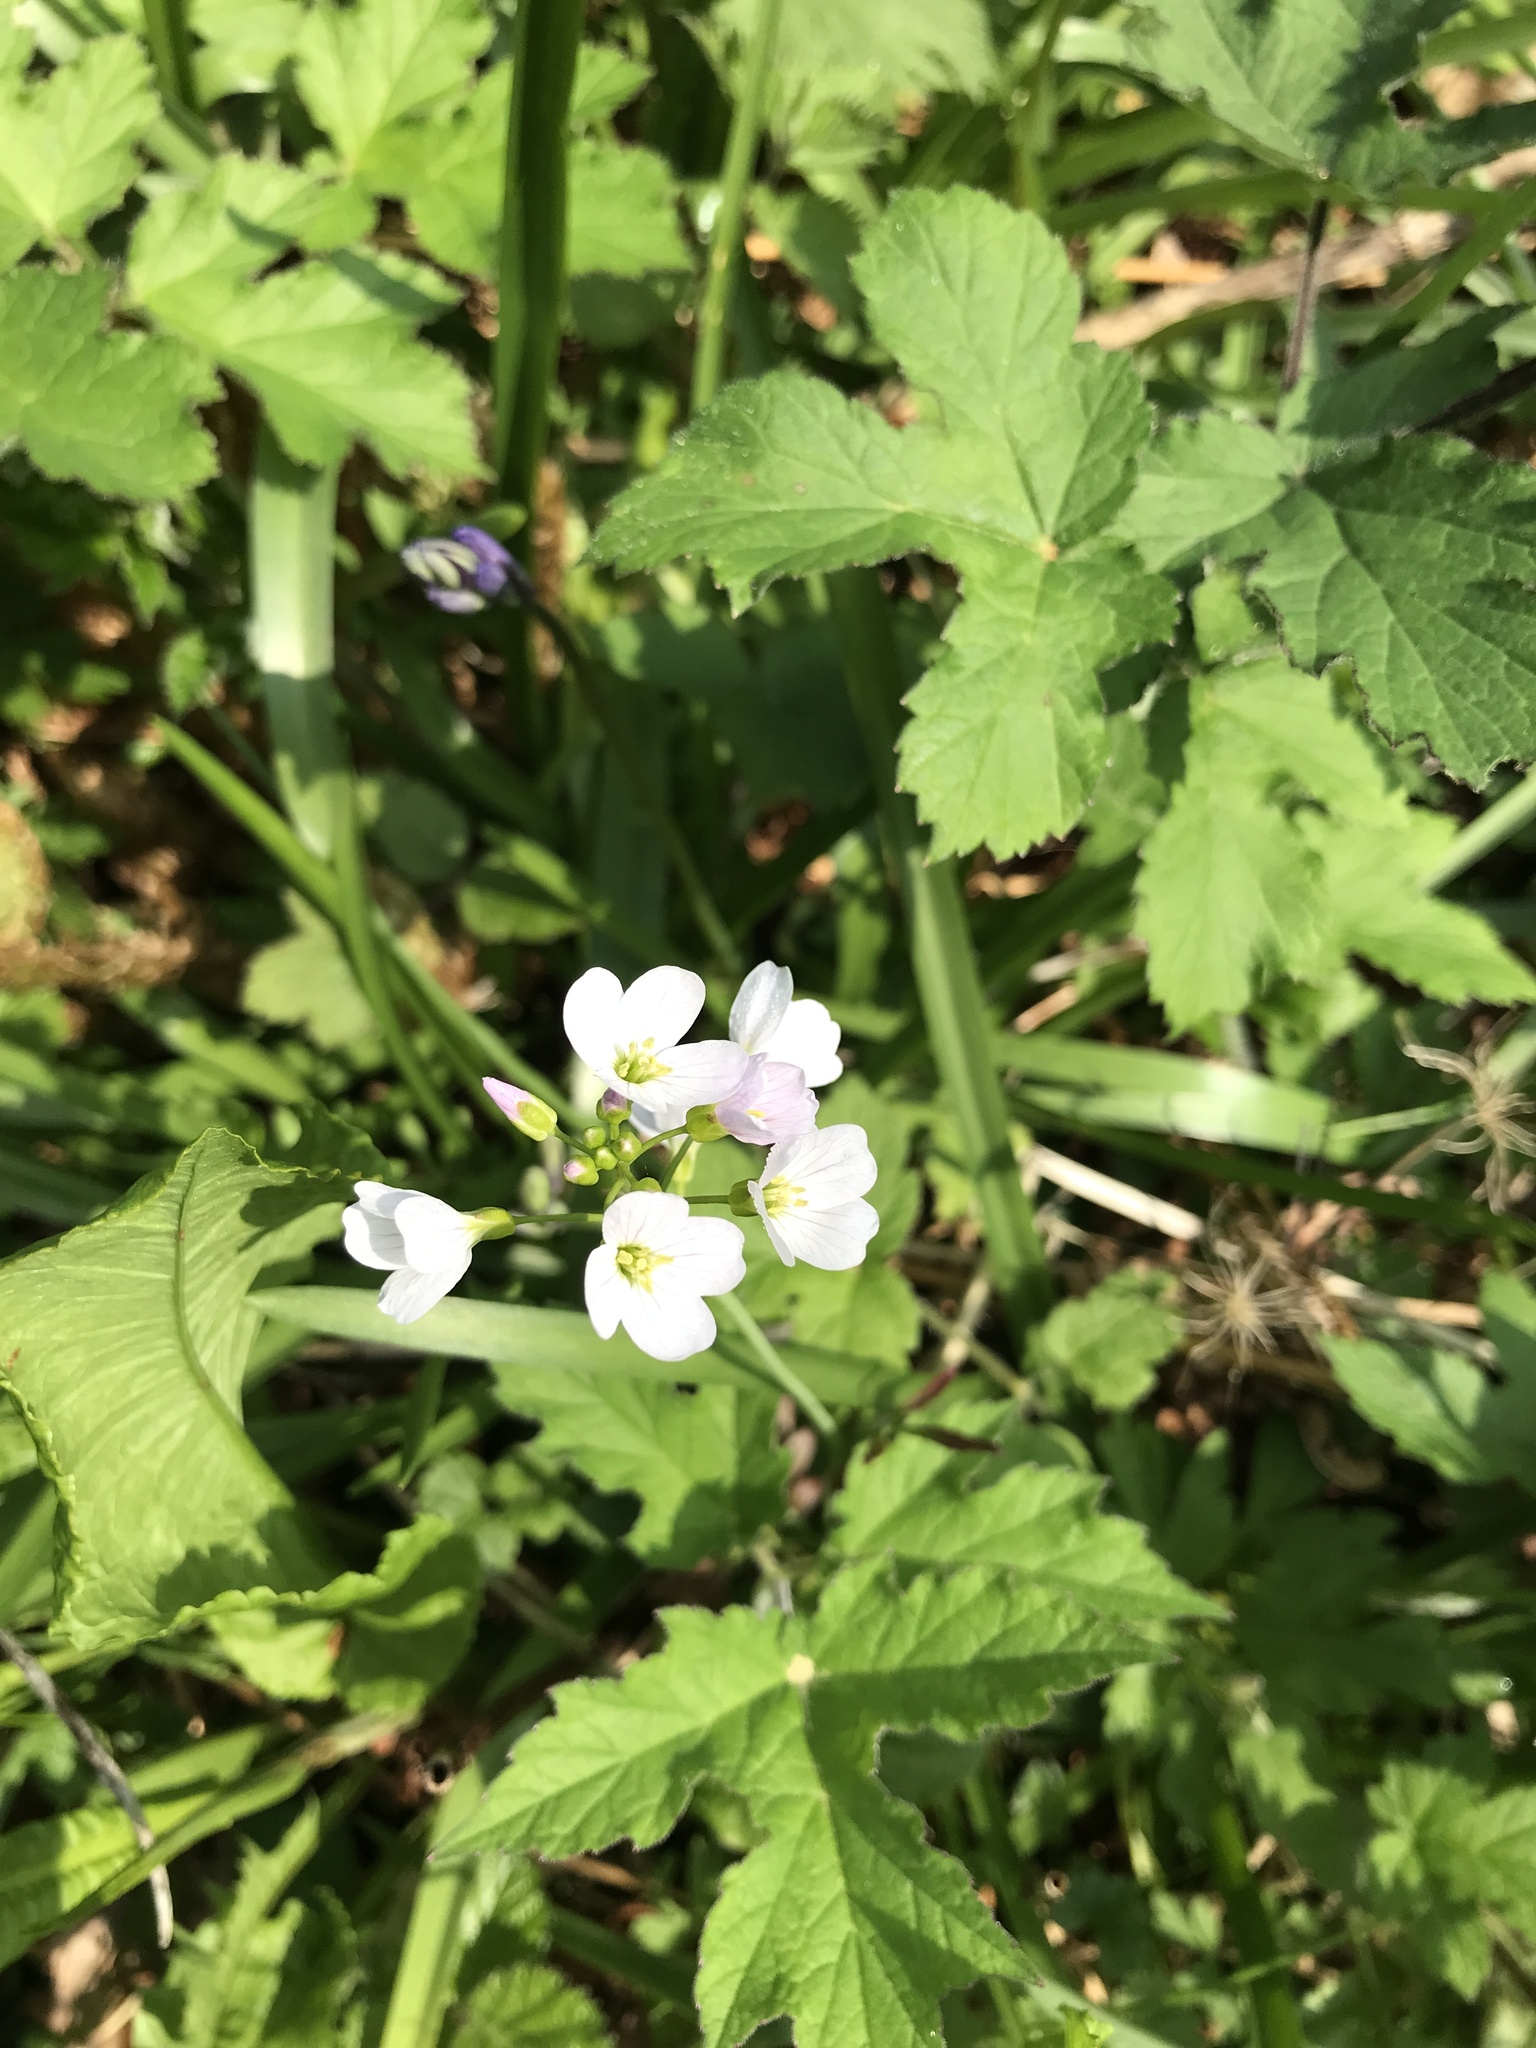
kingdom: Plantae
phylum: Tracheophyta
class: Magnoliopsida
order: Brassicales
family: Brassicaceae
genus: Cardamine
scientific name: Cardamine pratensis
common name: Cuckoo flower
